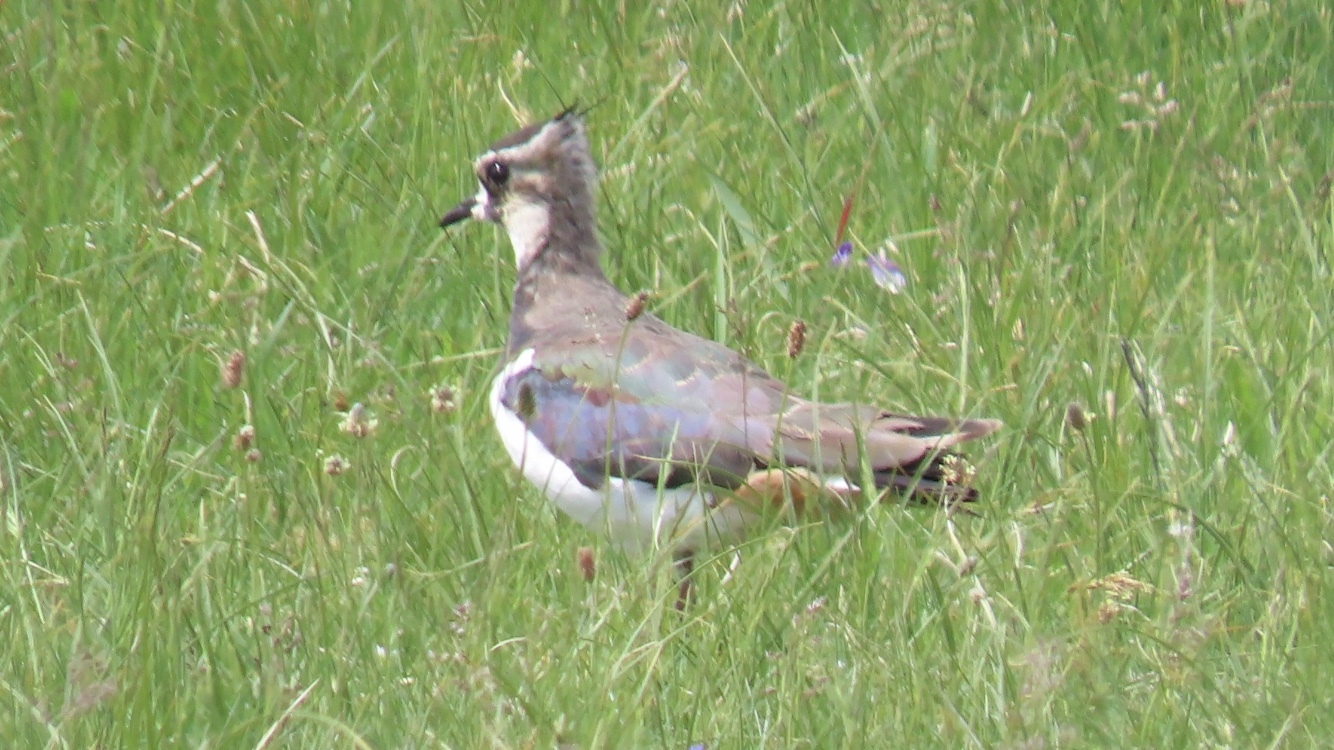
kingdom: Animalia
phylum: Chordata
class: Aves
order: Charadriiformes
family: Charadriidae
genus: Vanellus
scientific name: Vanellus vanellus
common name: Northern lapwing
